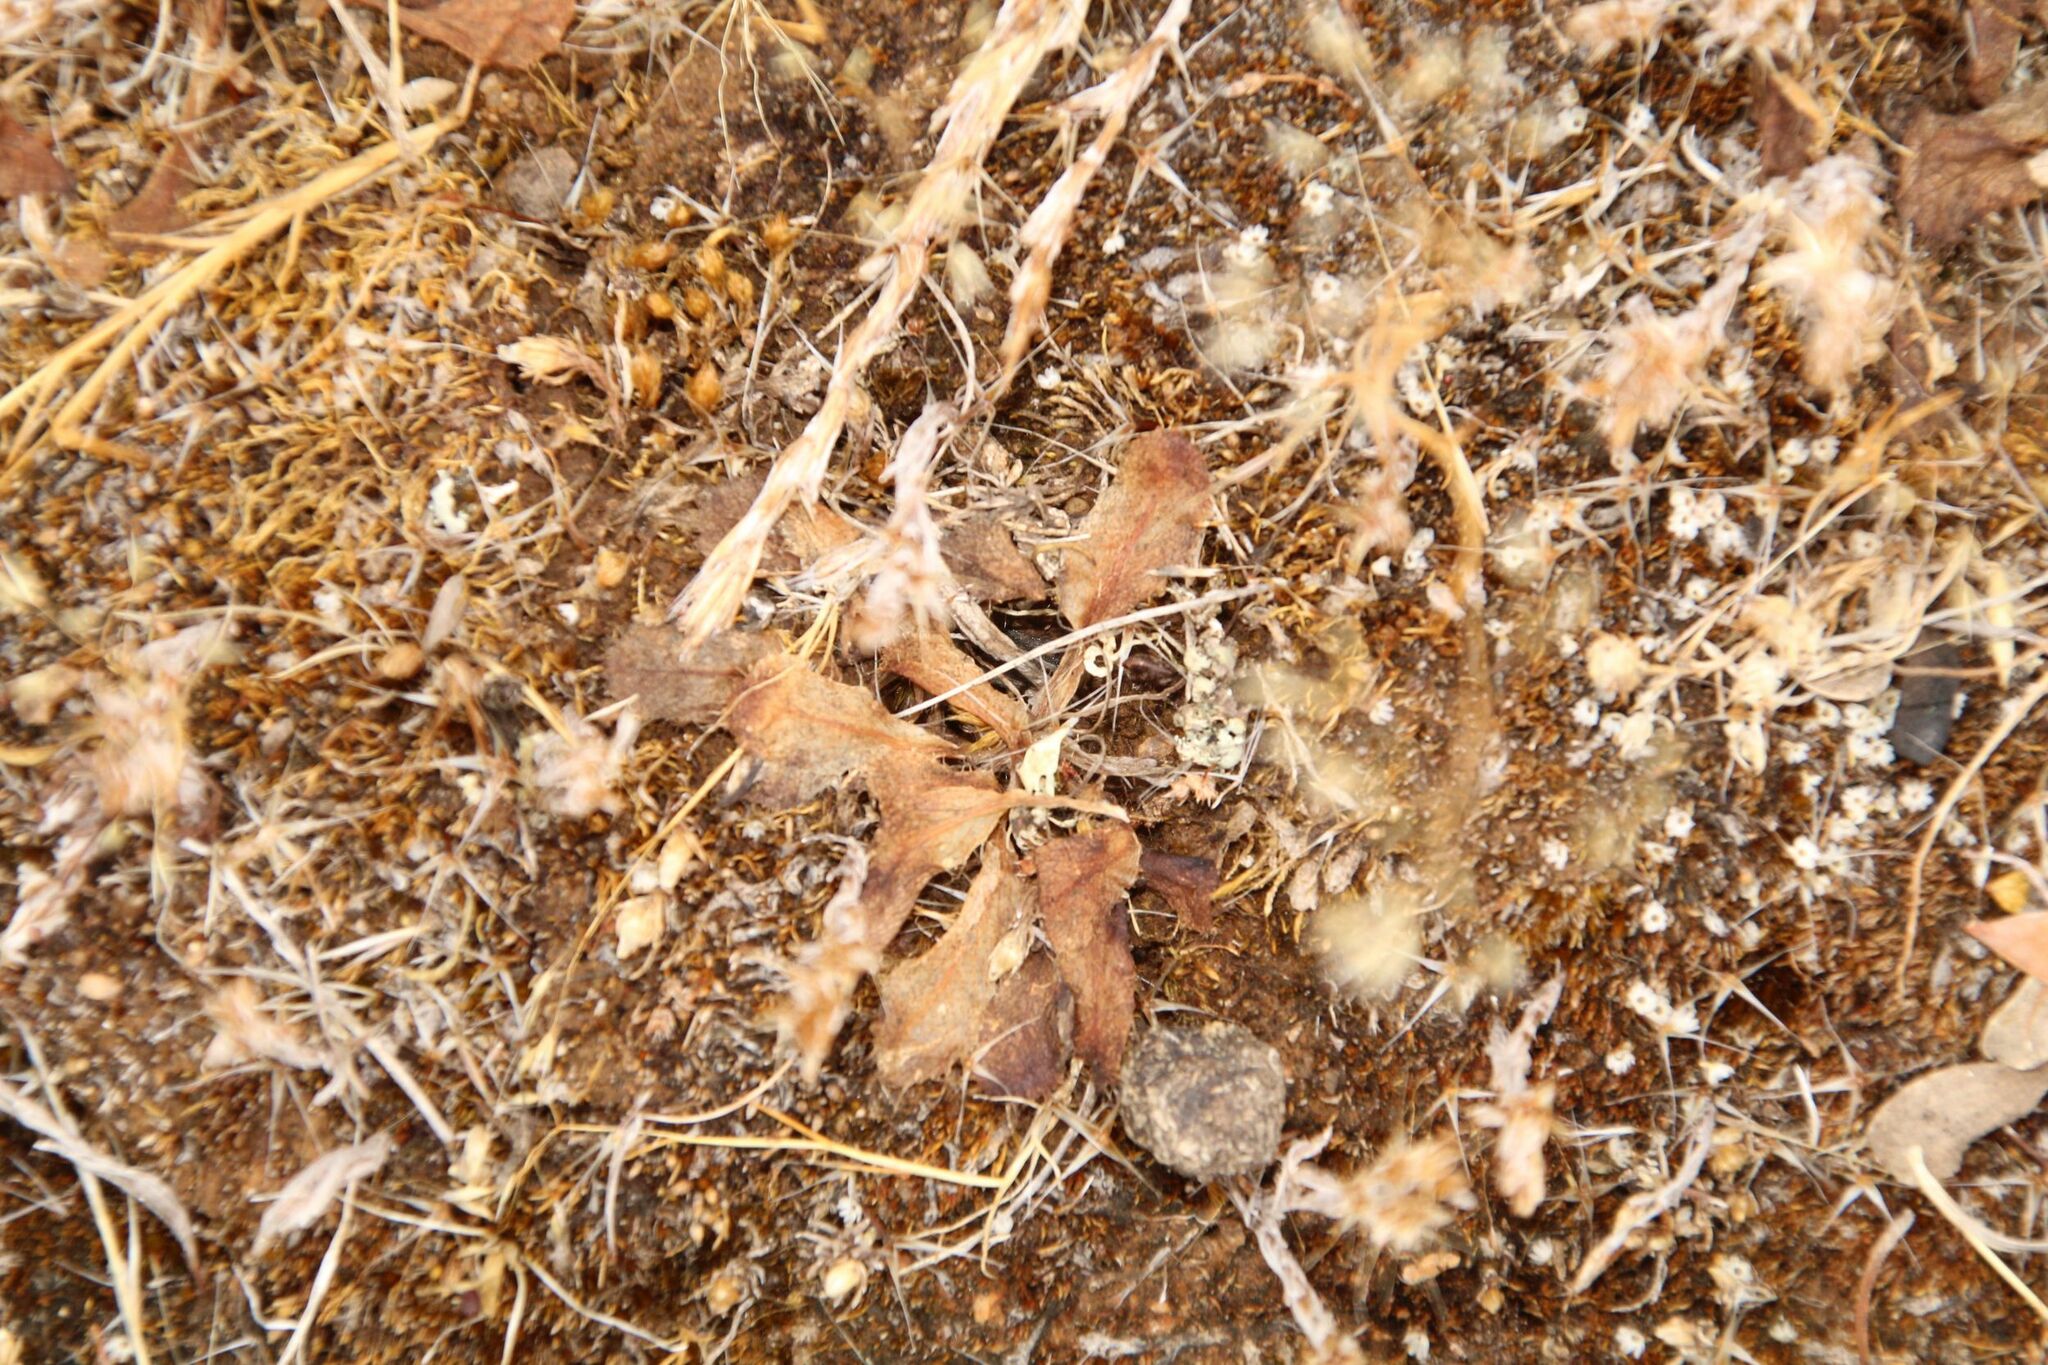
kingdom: Plantae
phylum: Tracheophyta
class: Magnoliopsida
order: Caryophyllales
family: Droseraceae
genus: Drosera
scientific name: Drosera bulbosa
